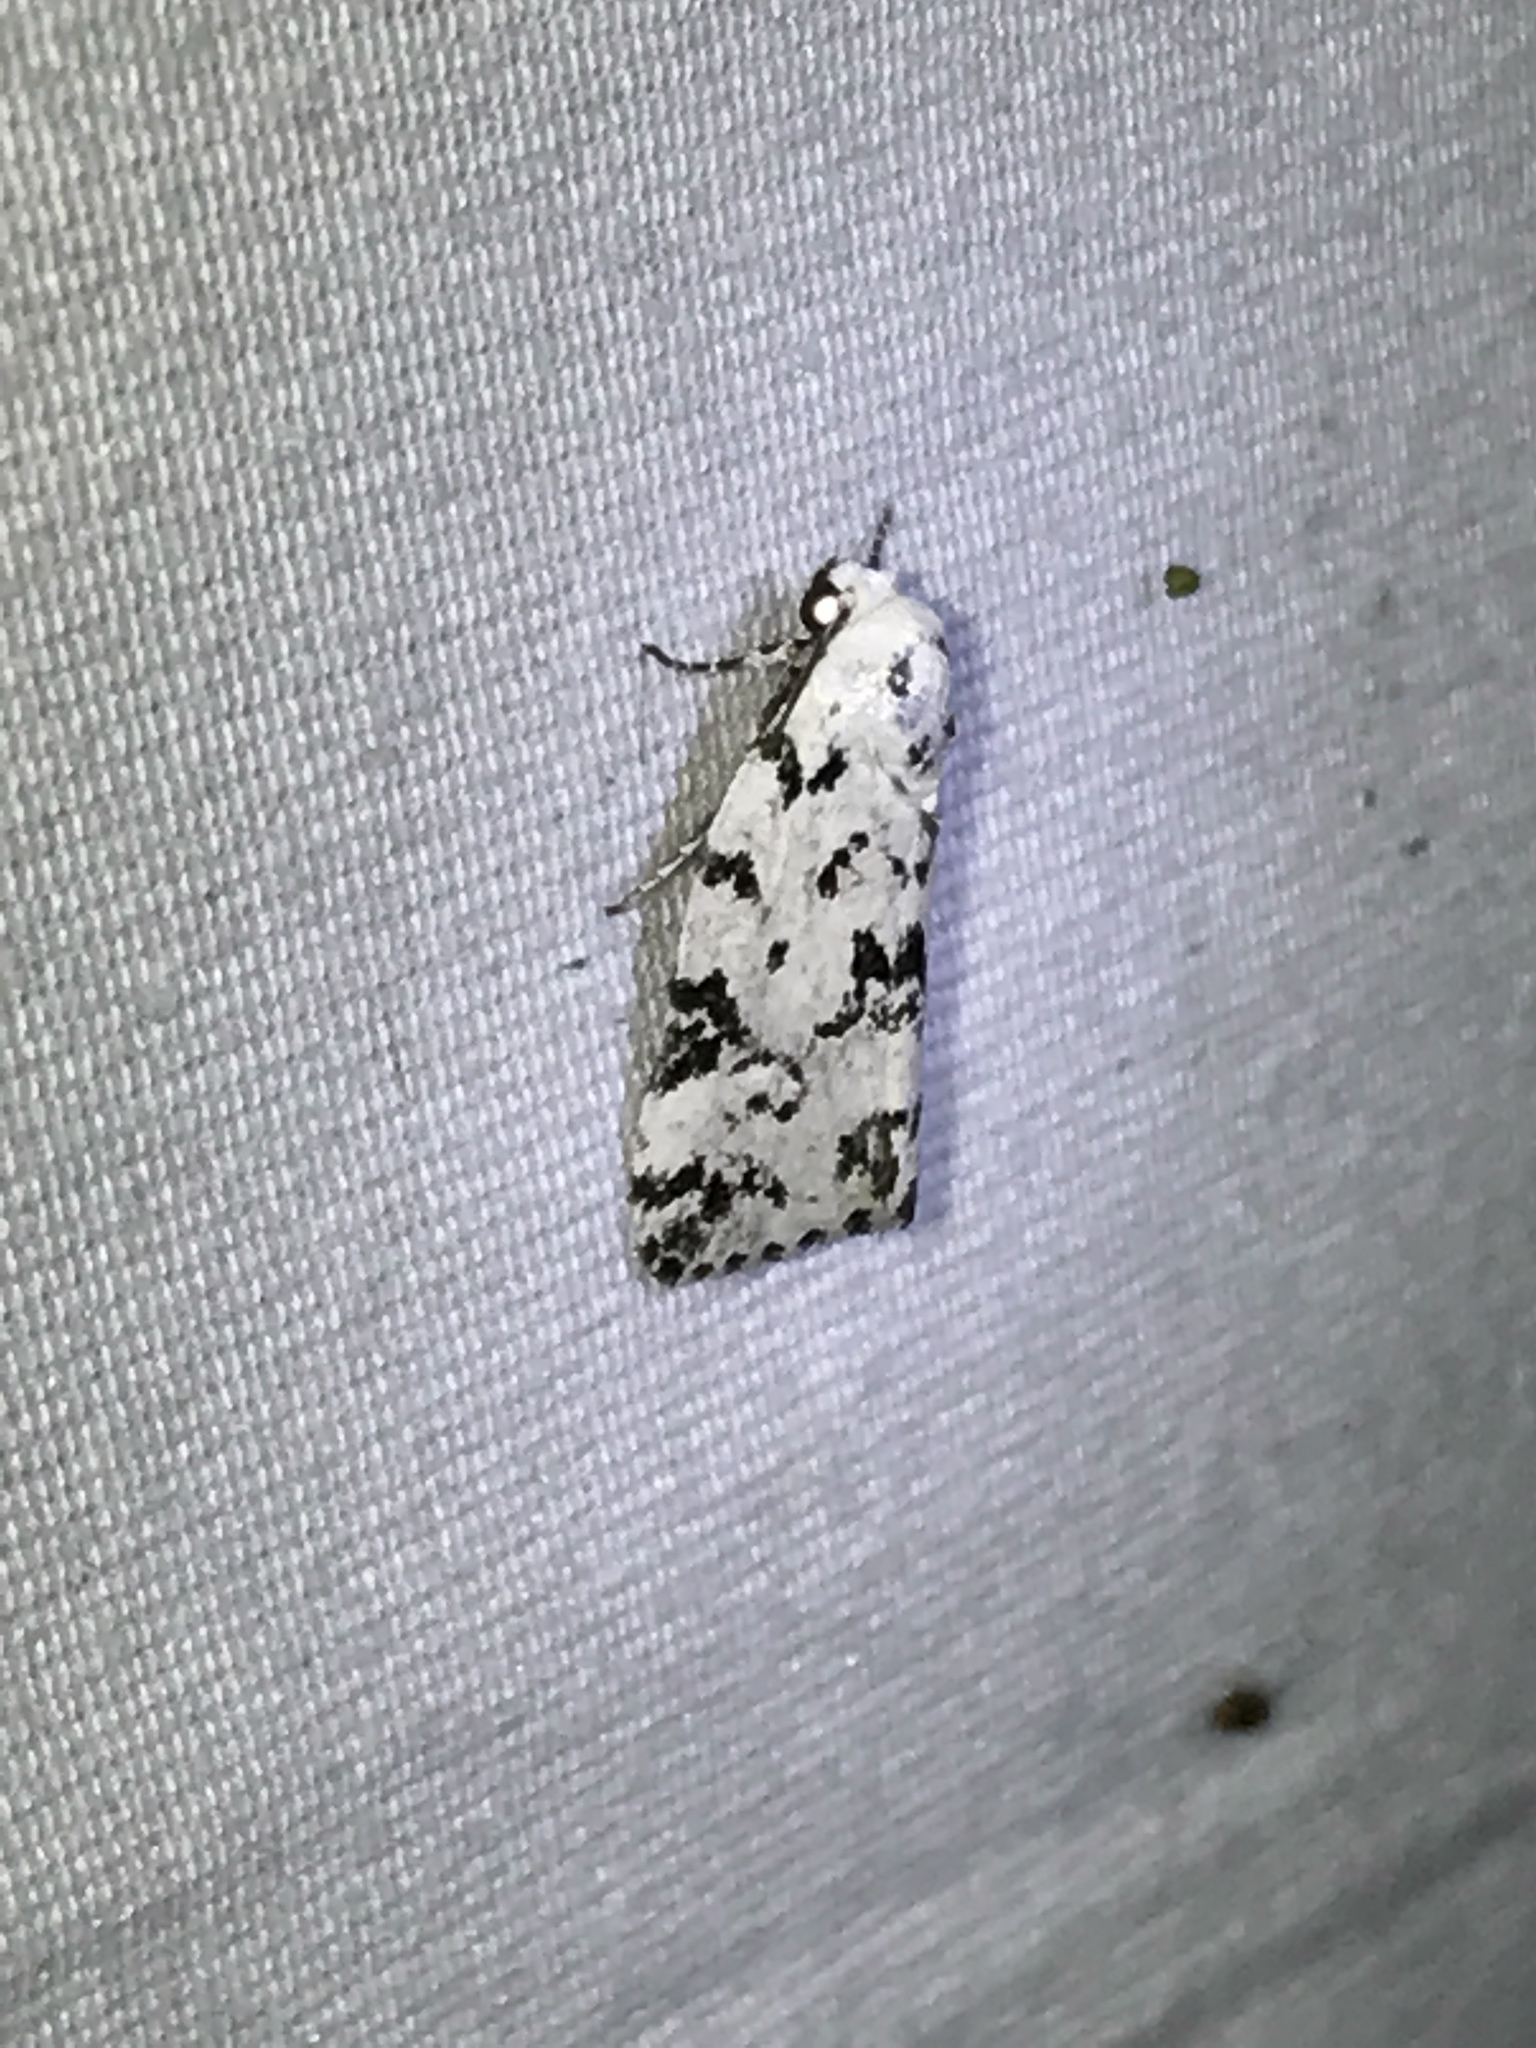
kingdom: Animalia
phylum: Arthropoda
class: Insecta
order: Lepidoptera
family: Noctuidae
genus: Polygrammate
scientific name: Polygrammate hebraeicum
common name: Hebrew moth
